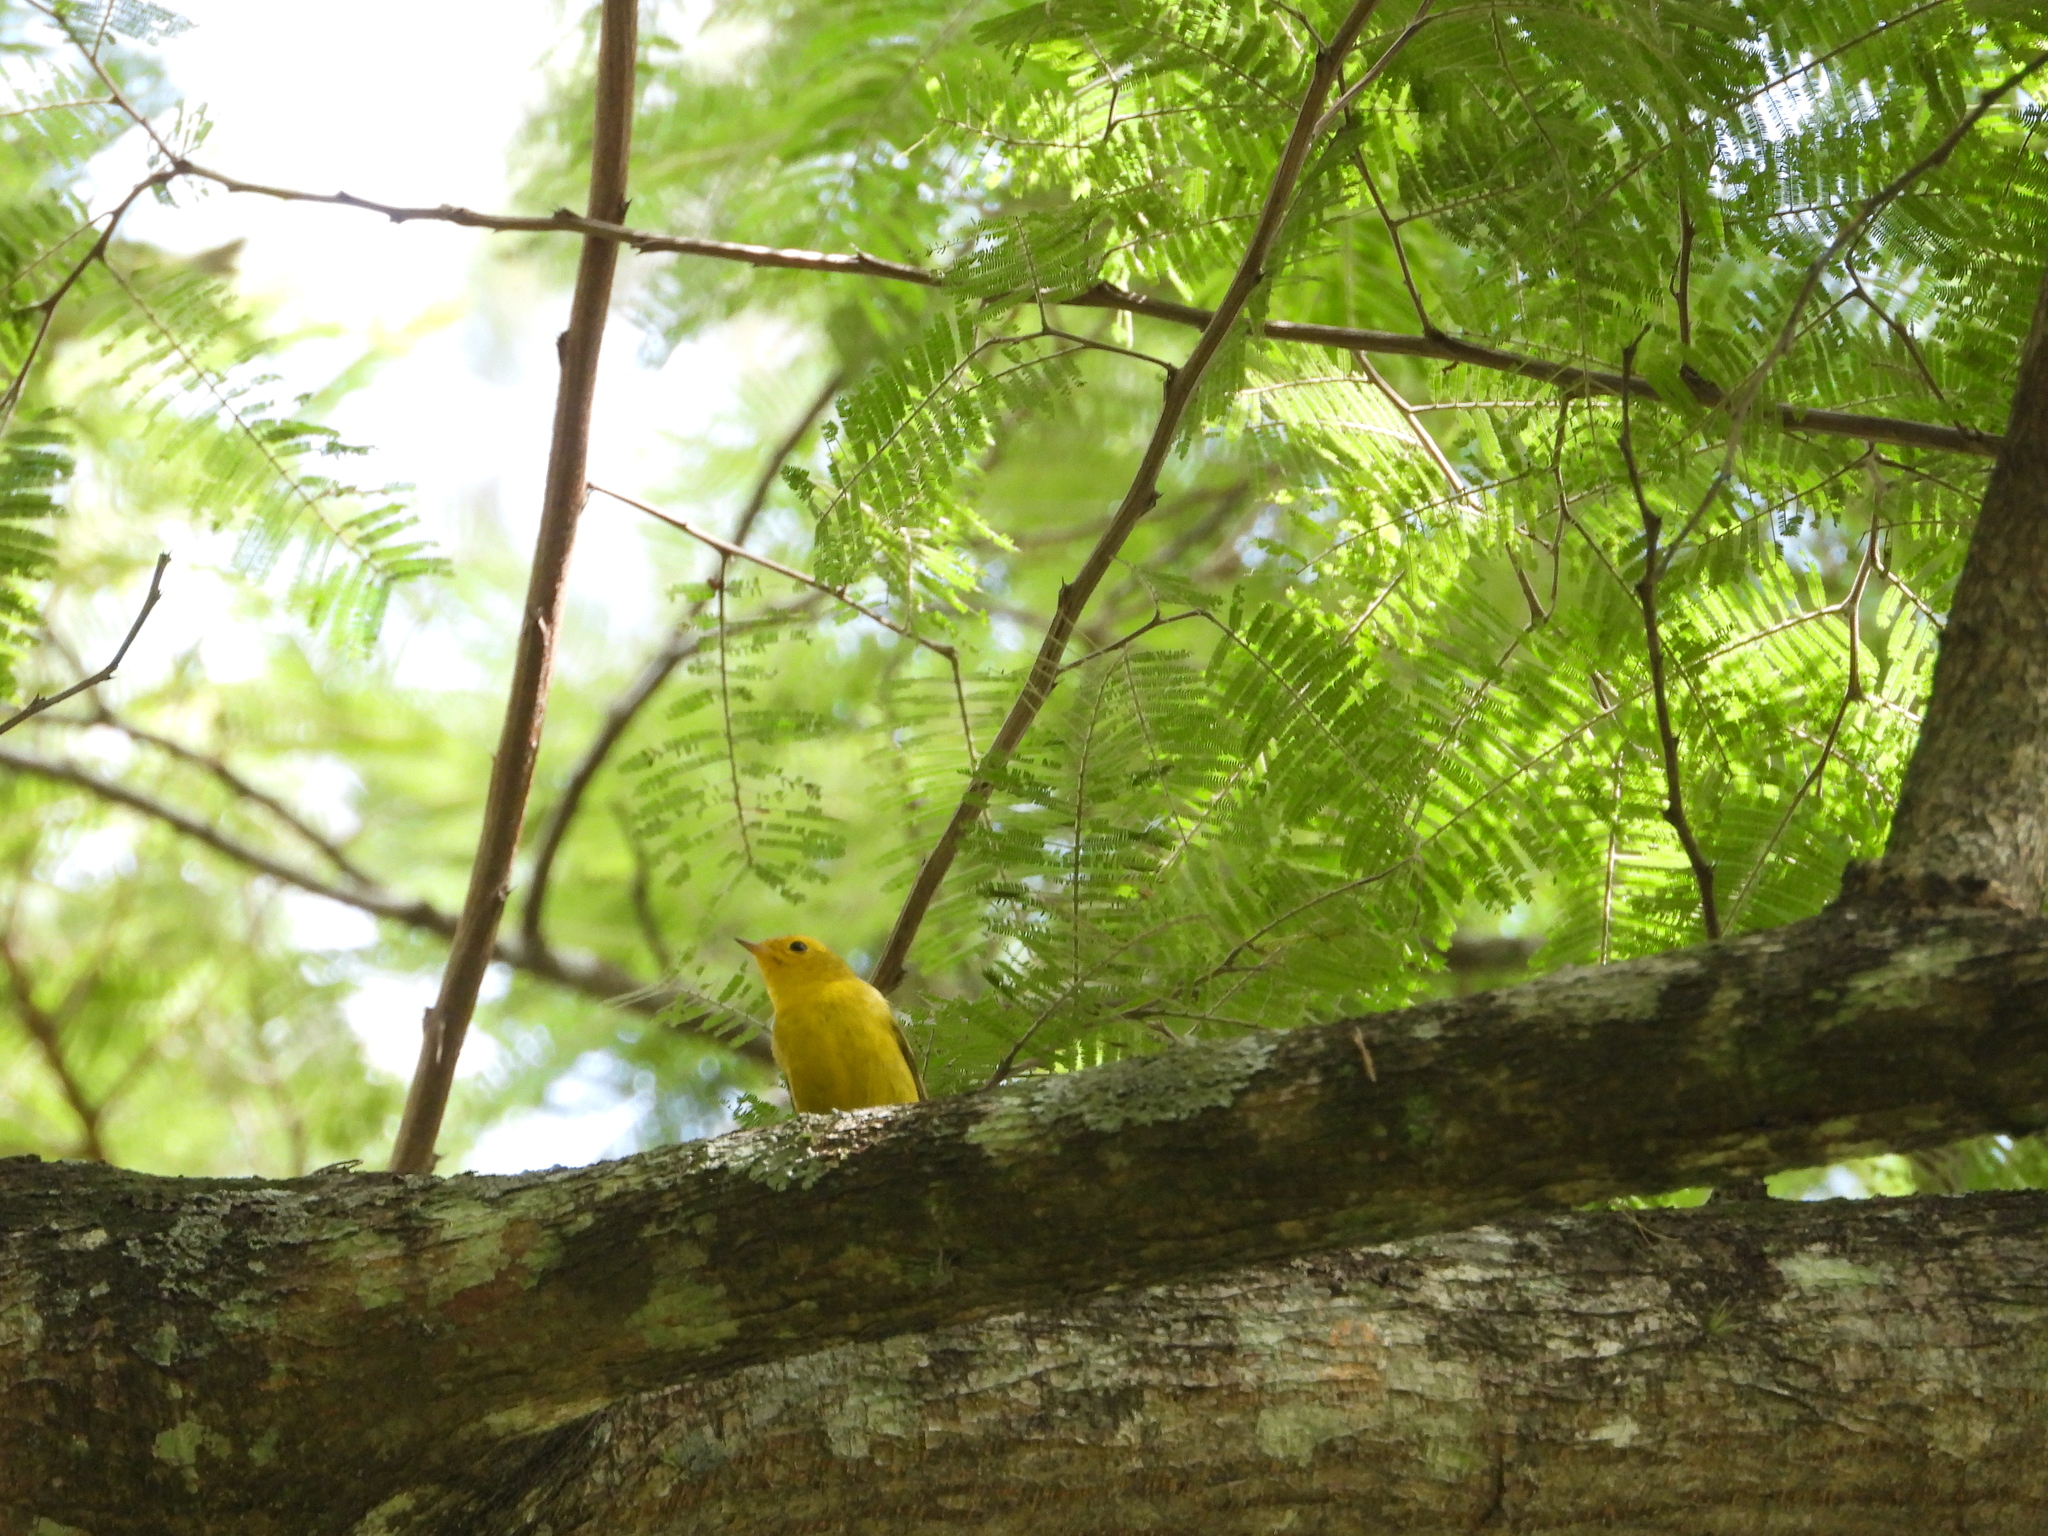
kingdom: Animalia
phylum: Chordata
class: Aves
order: Passeriformes
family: Parulidae
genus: Cardellina
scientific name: Cardellina pusilla
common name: Wilson's warbler
